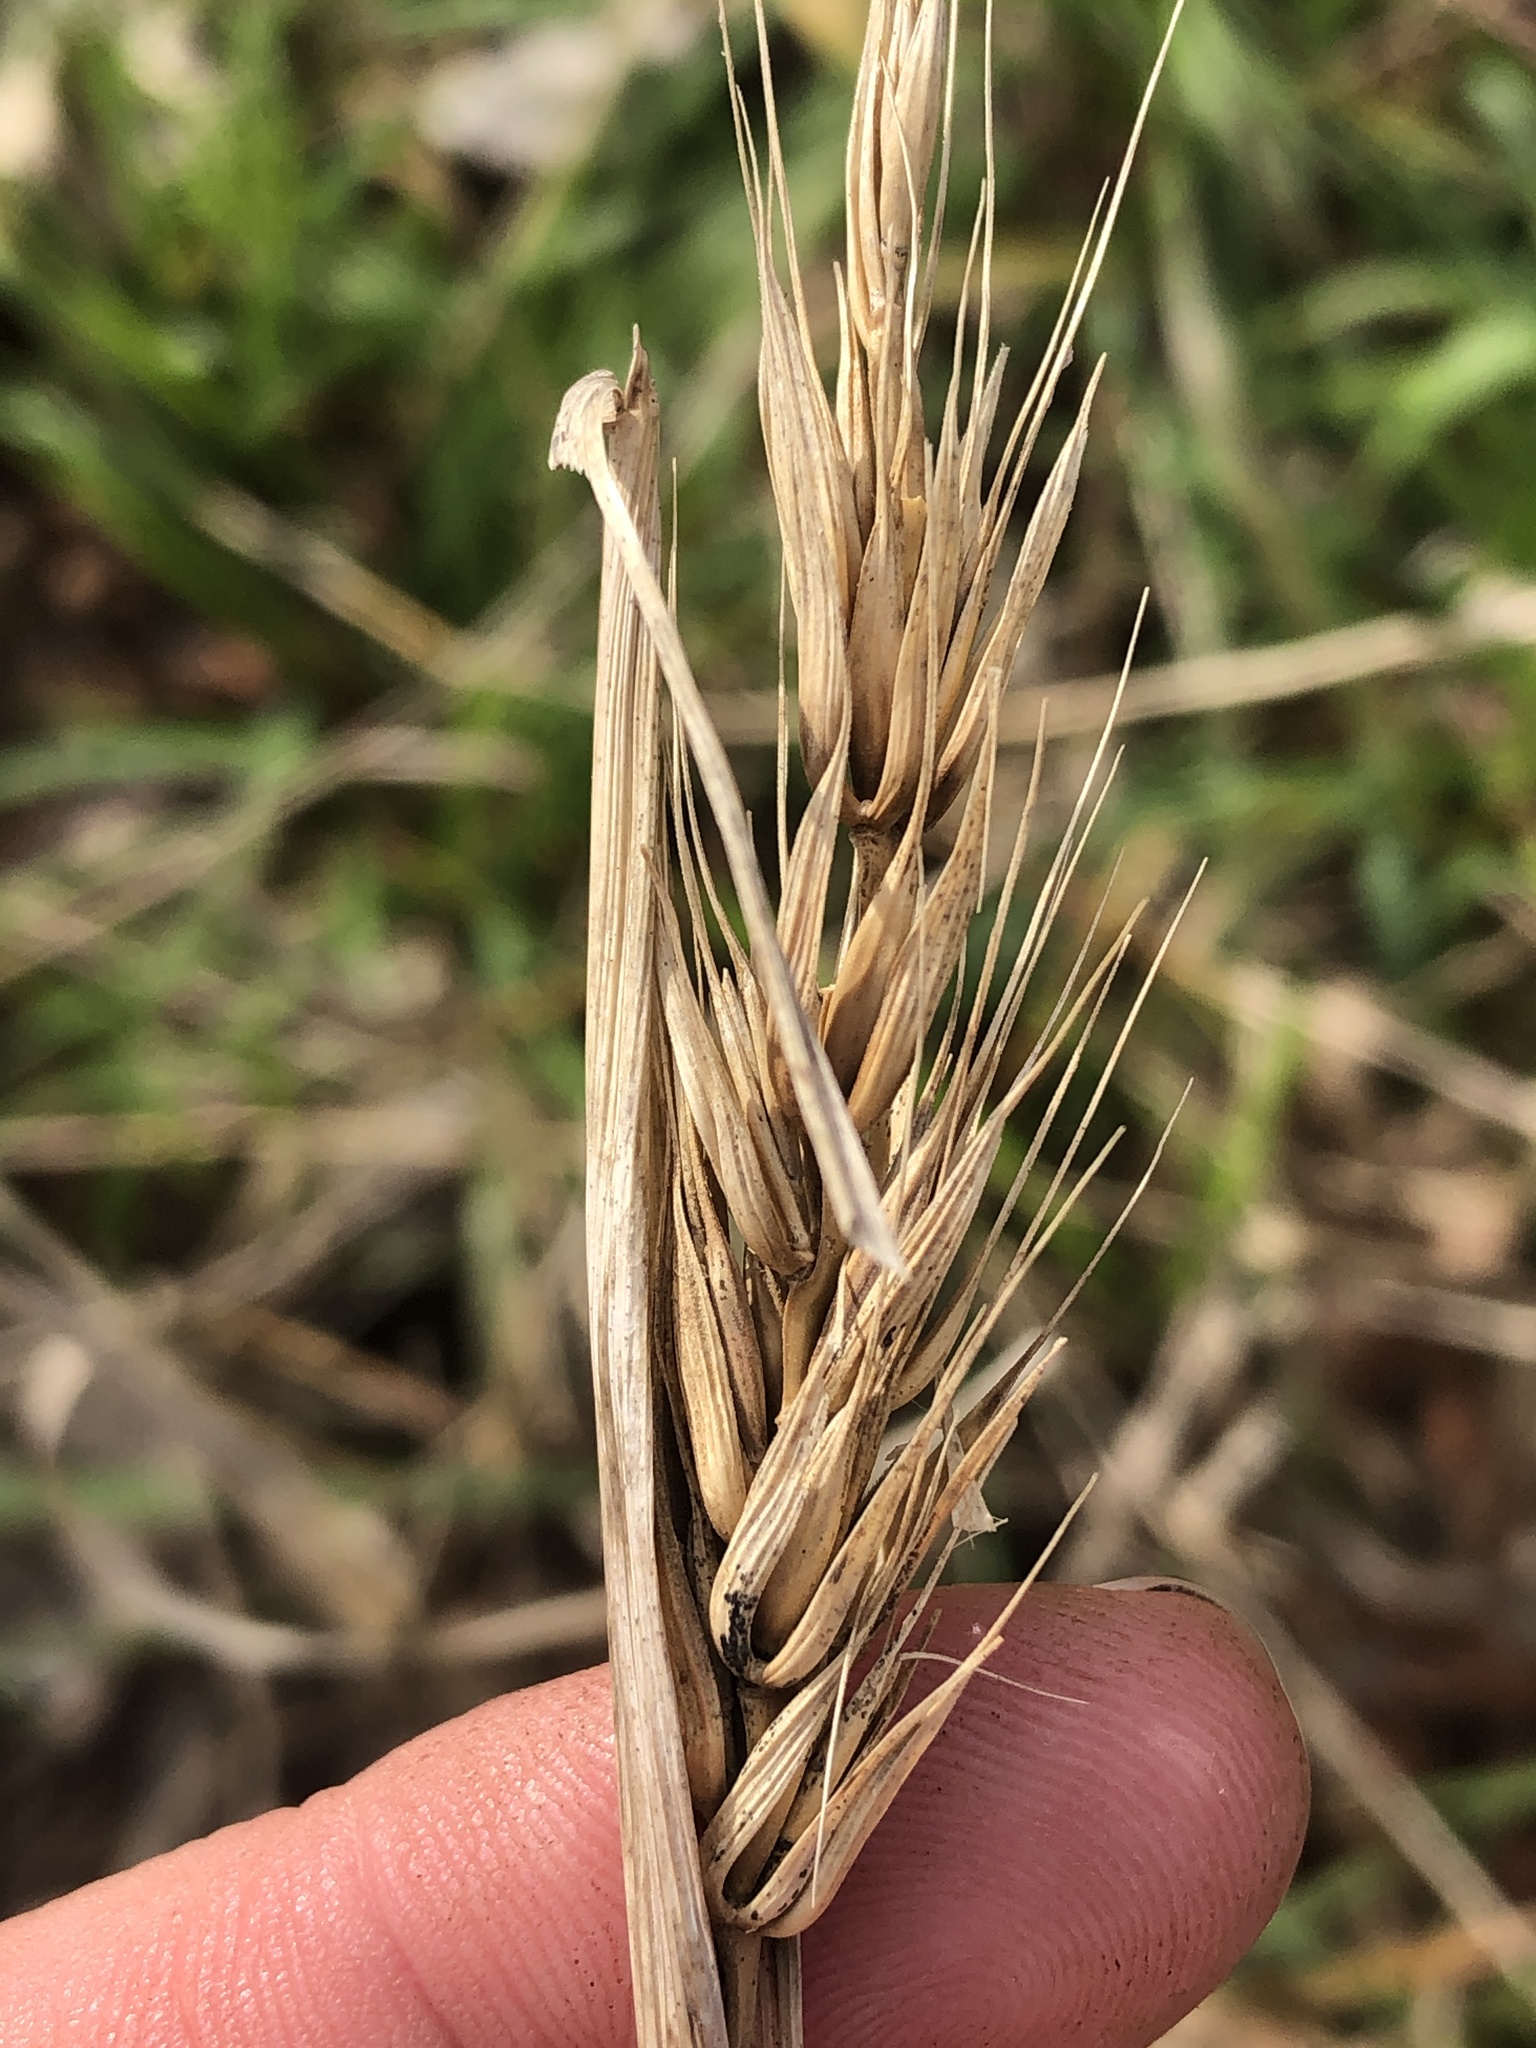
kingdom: Plantae
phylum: Tracheophyta
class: Liliopsida
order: Poales
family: Poaceae
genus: Elymus
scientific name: Elymus virginicus
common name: Common eastern wildrye
